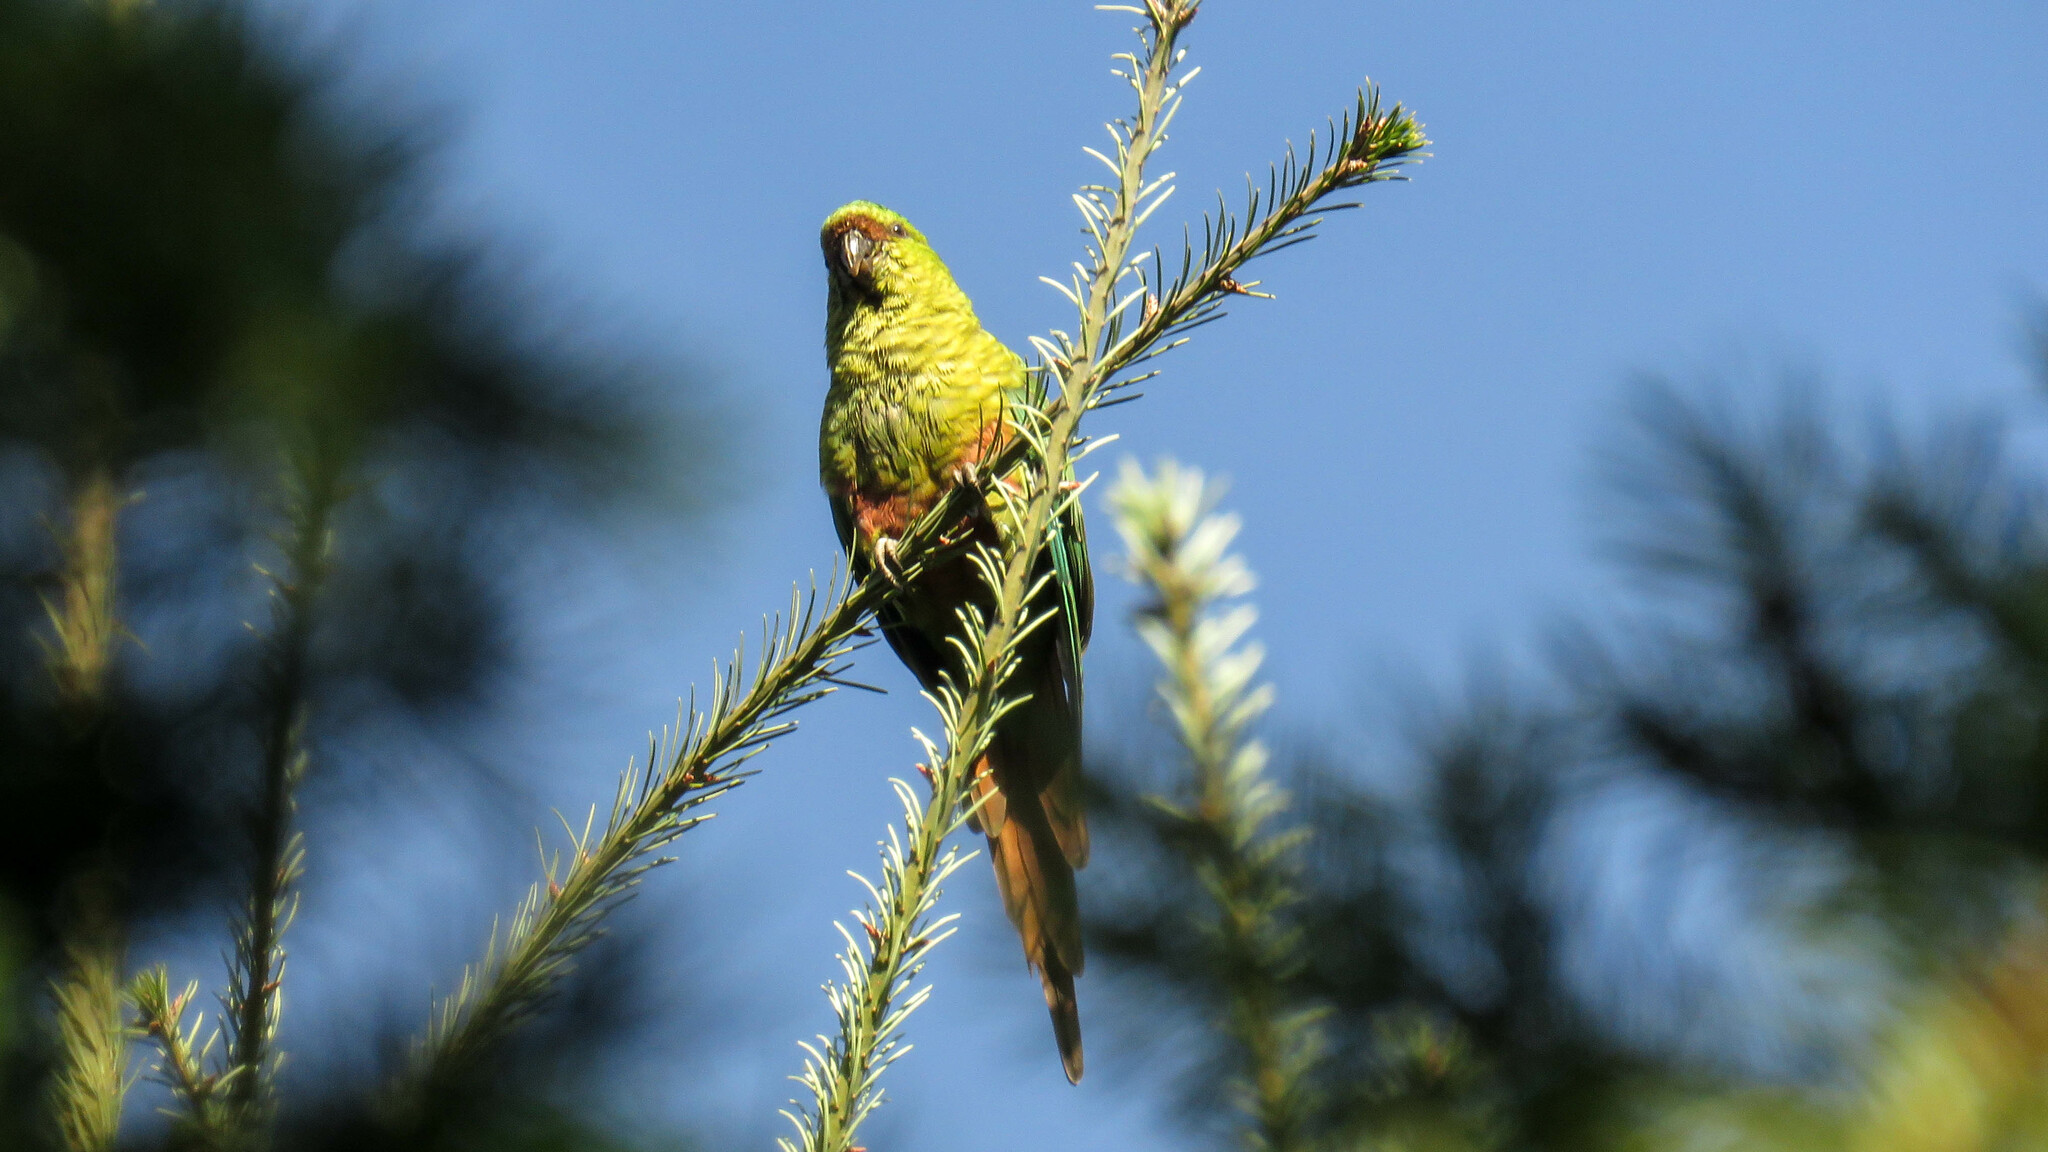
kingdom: Animalia
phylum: Chordata
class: Aves
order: Psittaciformes
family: Psittacidae
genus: Enicognathus
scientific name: Enicognathus ferrugineus
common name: Austral parakeet
